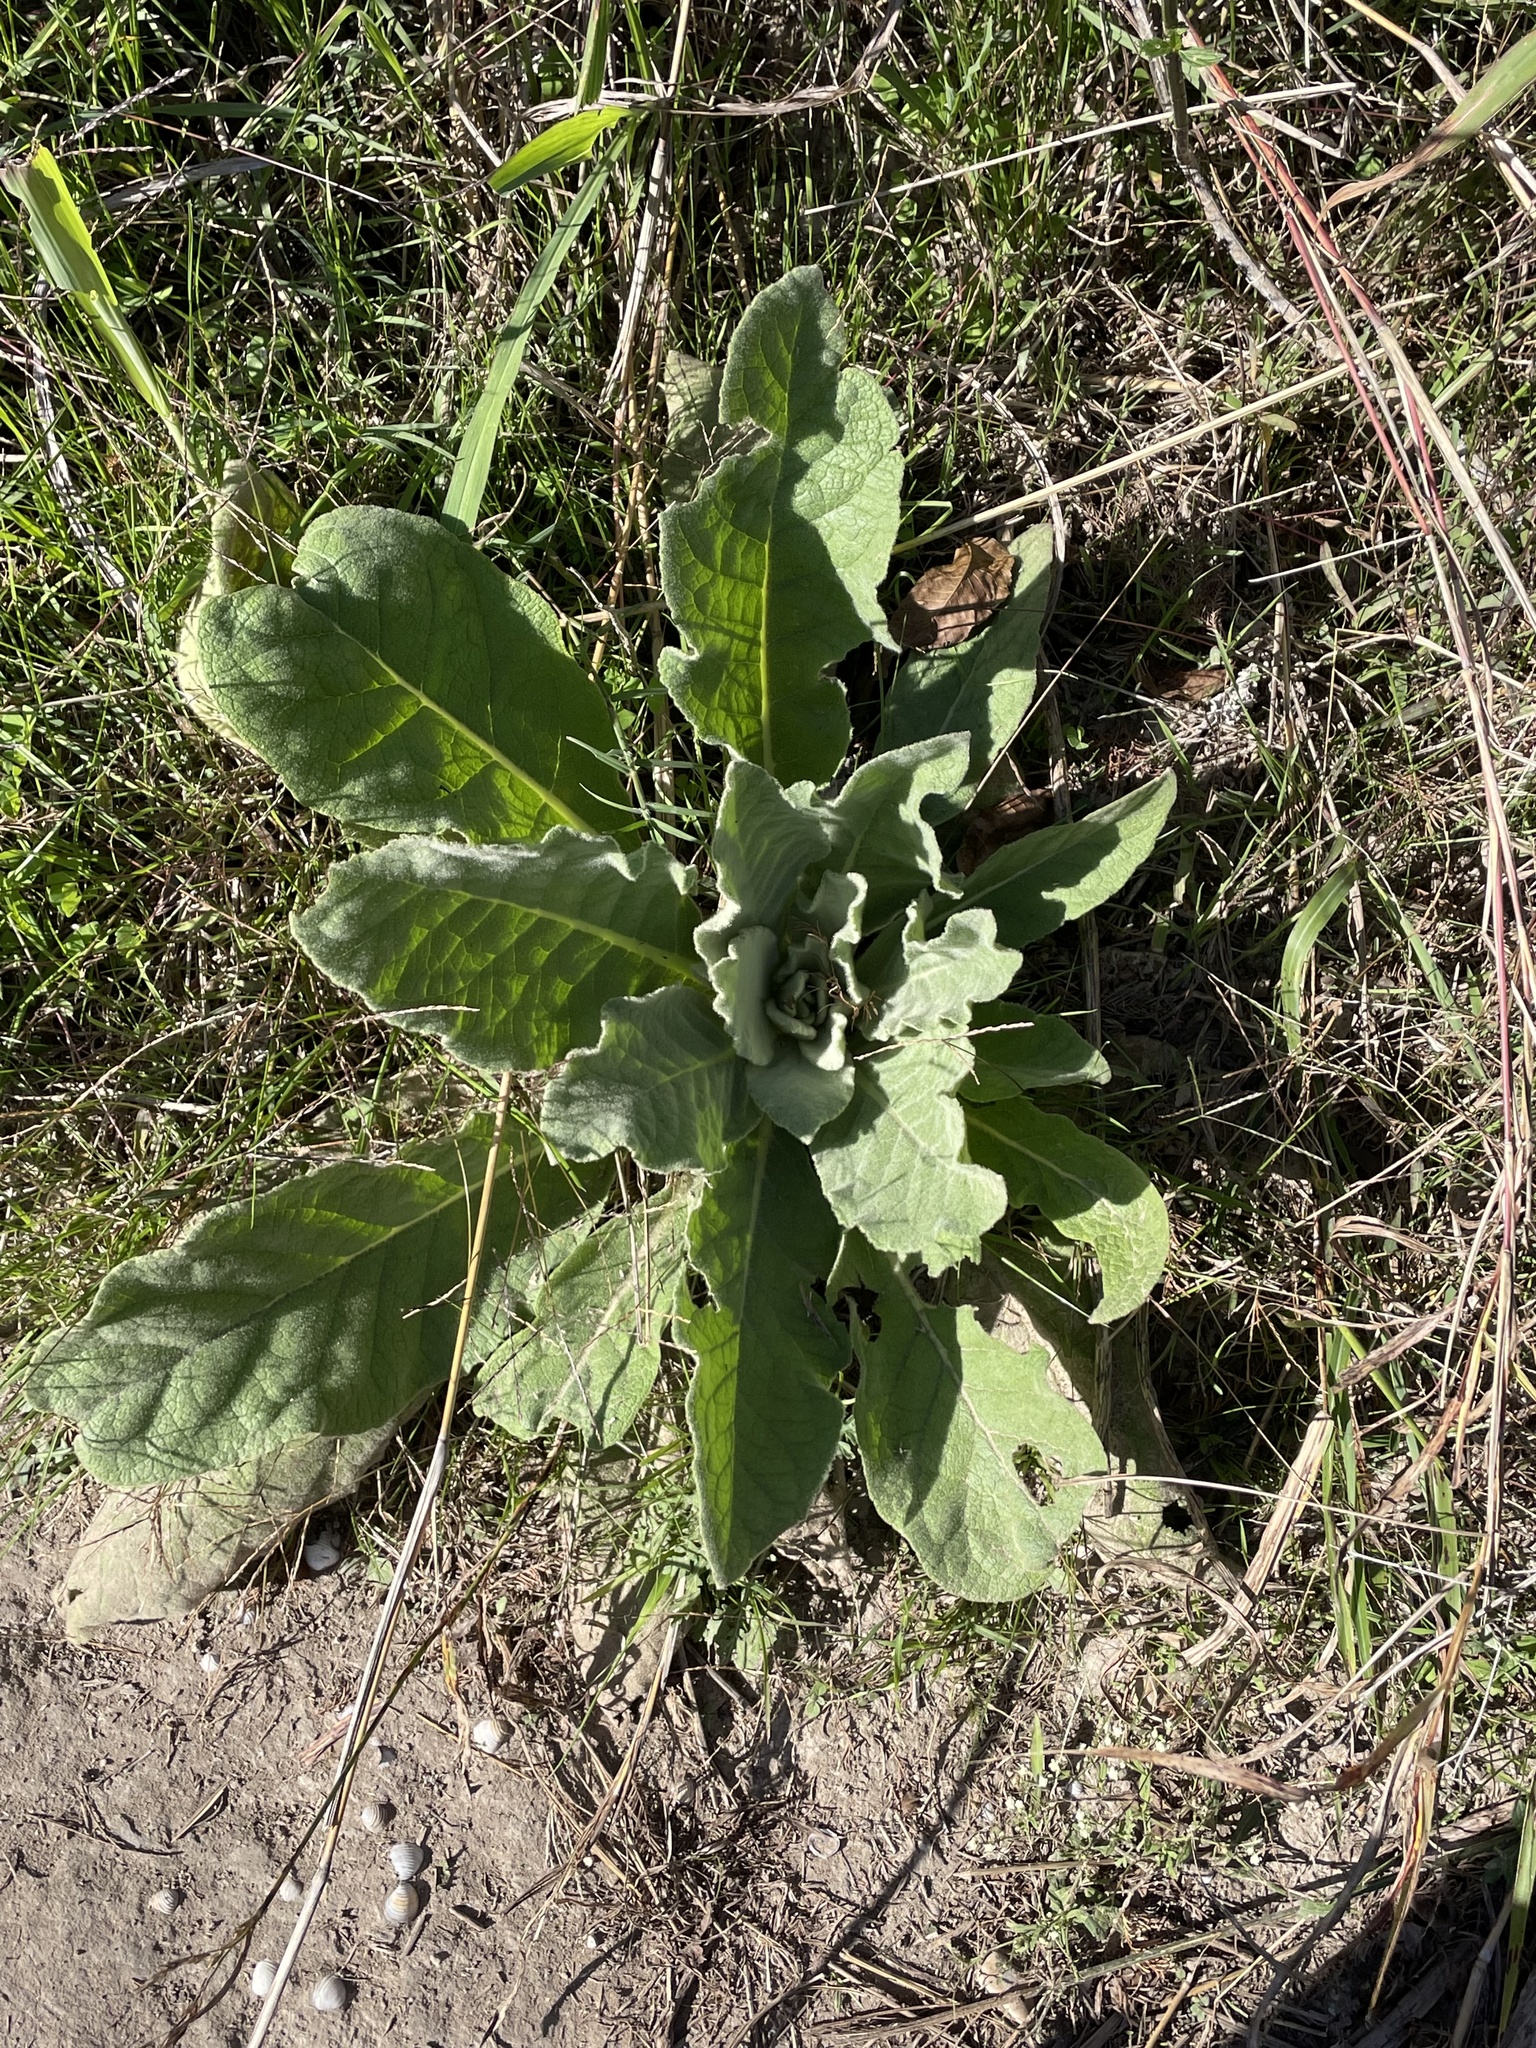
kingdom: Plantae
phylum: Tracheophyta
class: Magnoliopsida
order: Lamiales
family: Scrophulariaceae
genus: Verbascum
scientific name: Verbascum thapsus
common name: Common mullein
